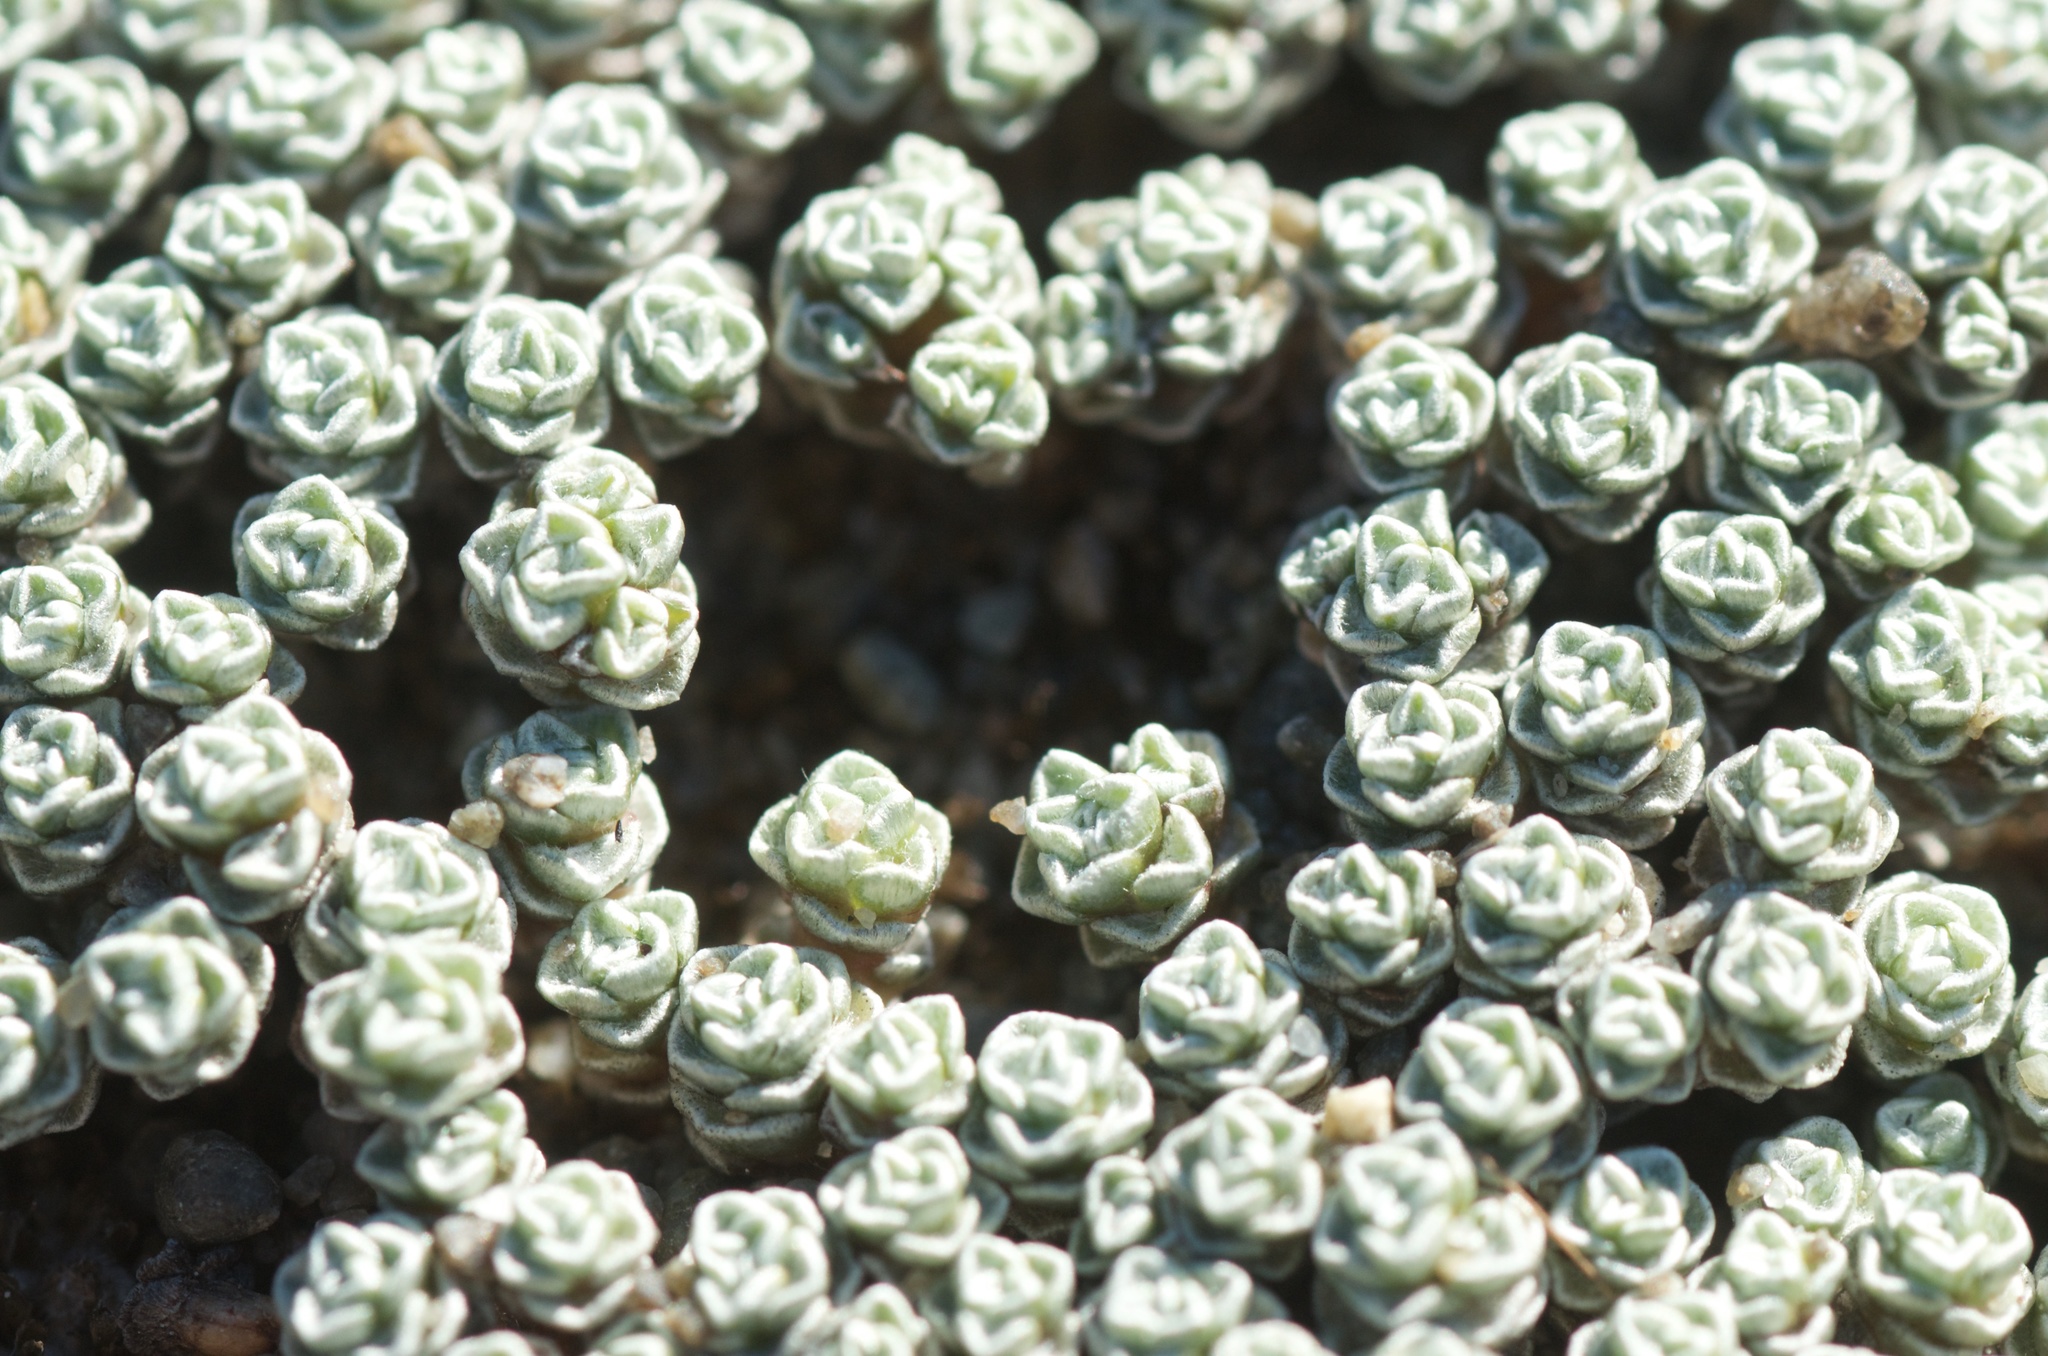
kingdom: Plantae
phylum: Tracheophyta
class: Magnoliopsida
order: Asterales
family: Asteraceae
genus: Raoulia
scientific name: Raoulia australis
